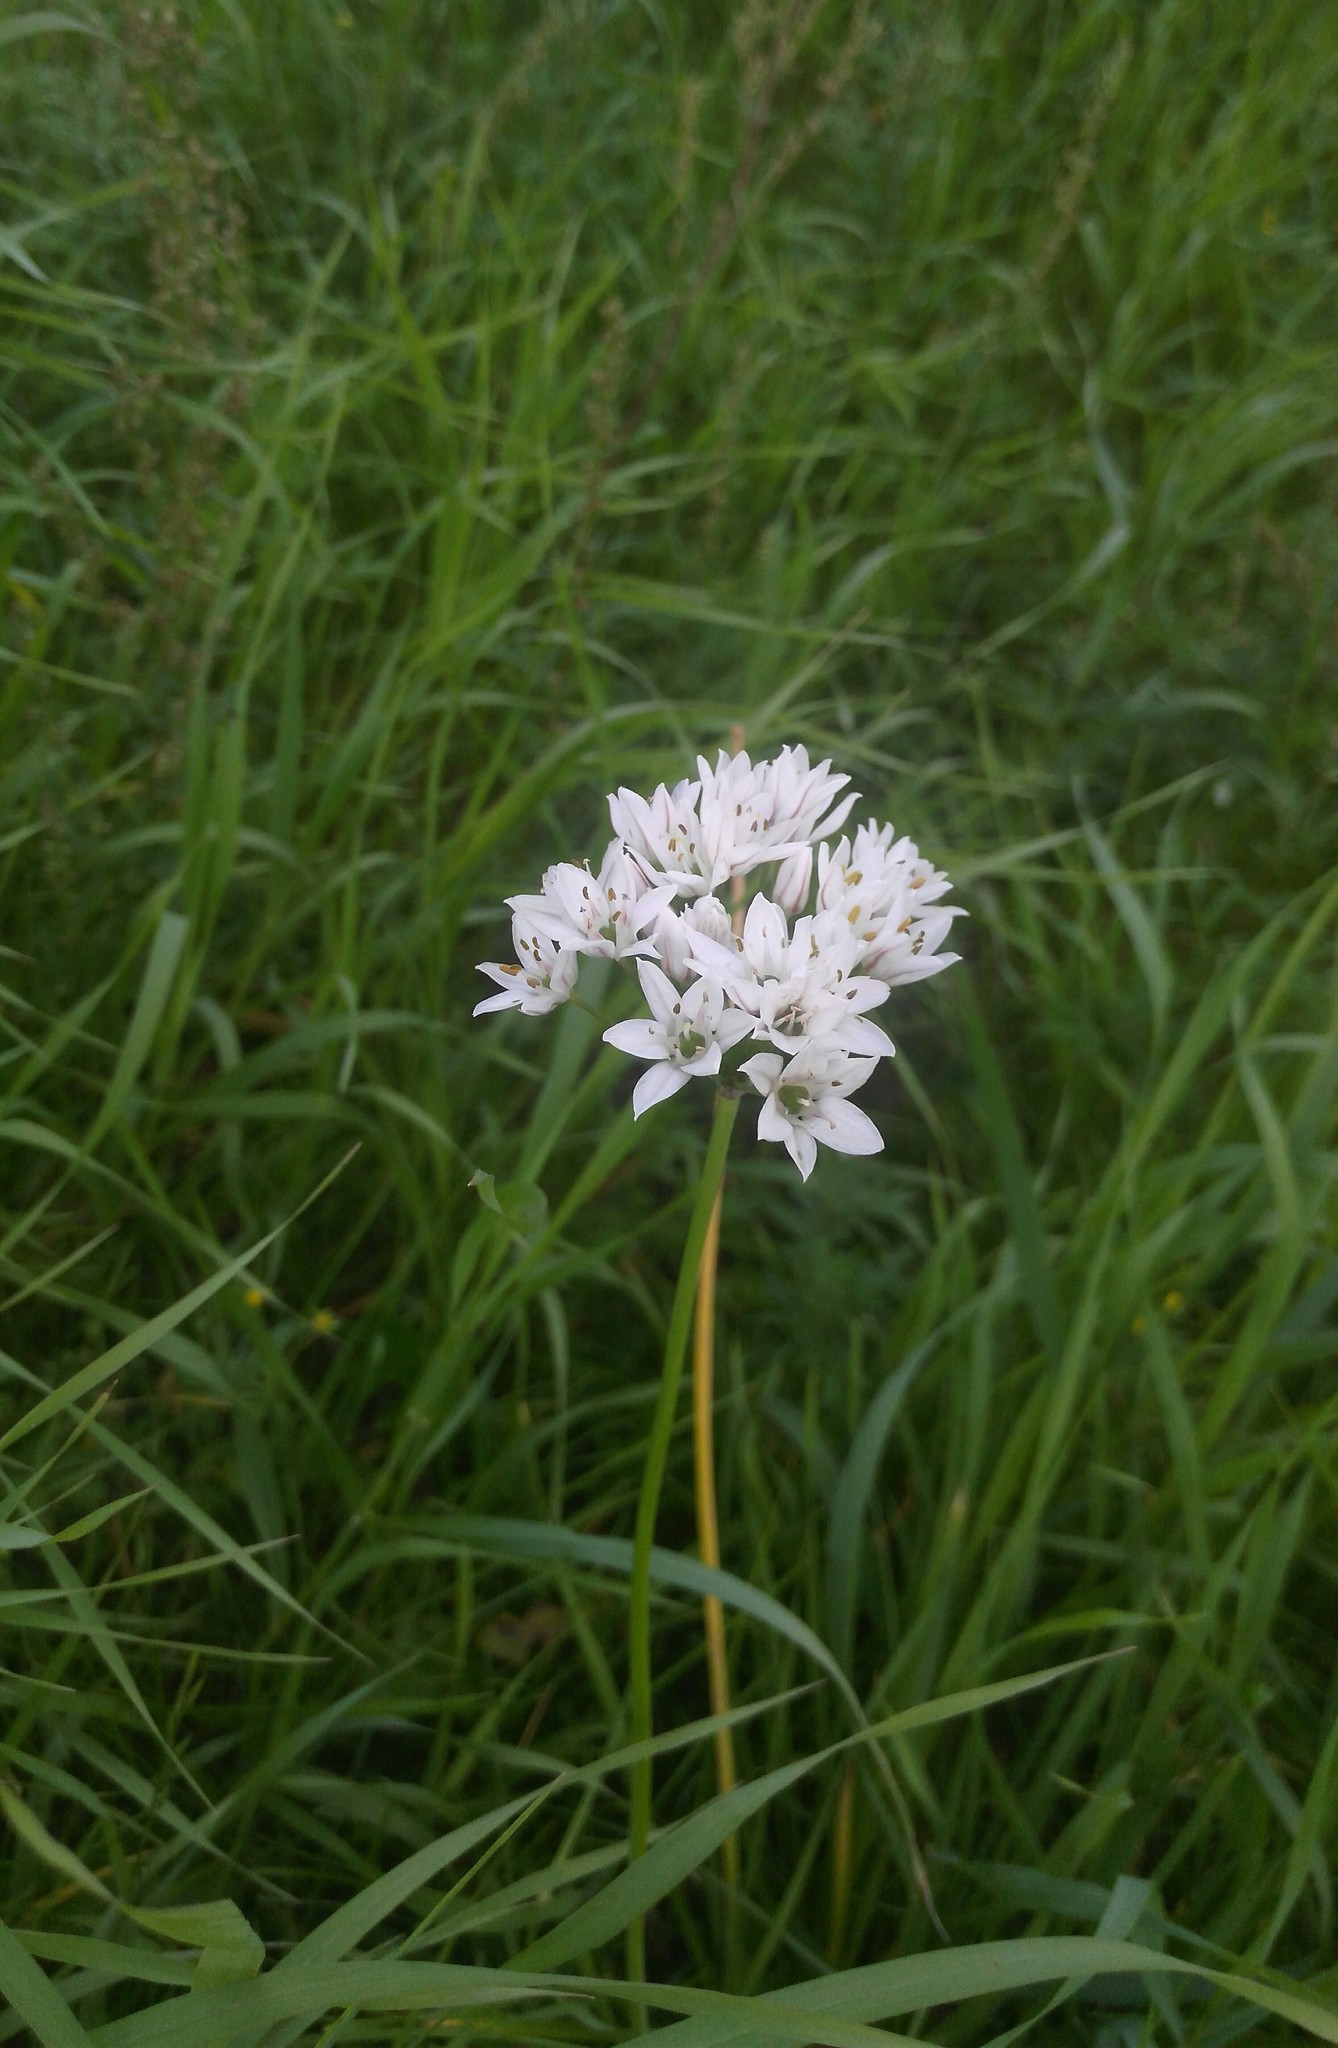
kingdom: Plantae
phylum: Tracheophyta
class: Liliopsida
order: Asparagales
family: Amaryllidaceae
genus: Allium
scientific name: Allium ramosum
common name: Fragrant garlic
